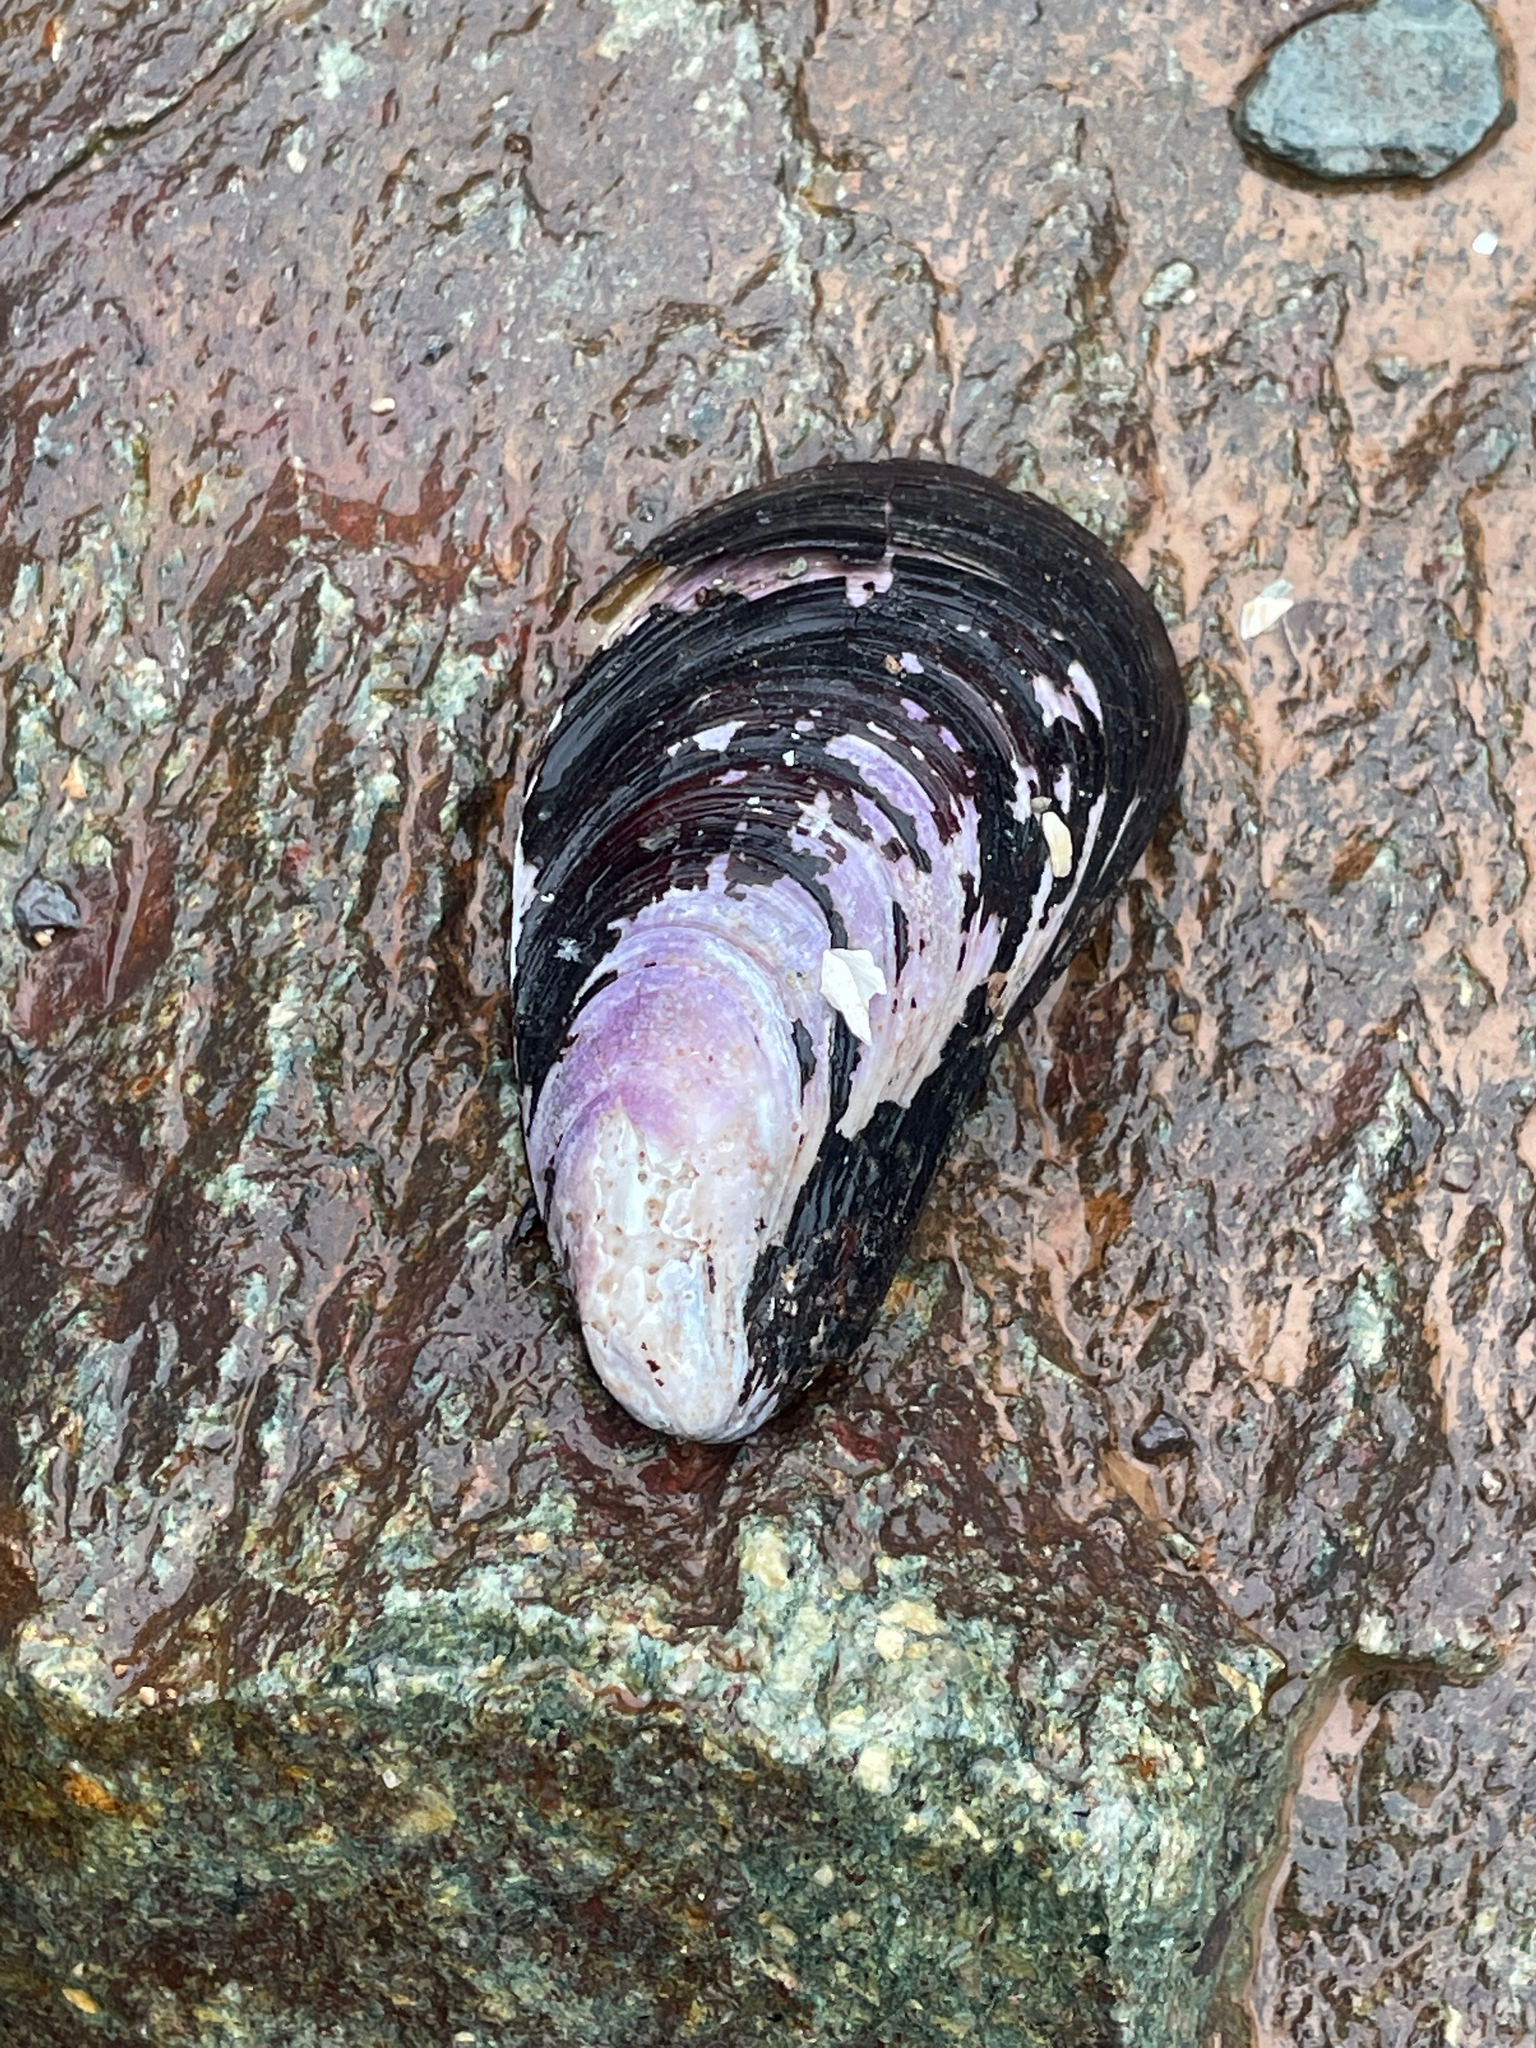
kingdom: Animalia
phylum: Mollusca
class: Bivalvia
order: Mytilida
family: Mytilidae
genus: Modiolus
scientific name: Modiolus modiolus
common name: Horse-mussel
